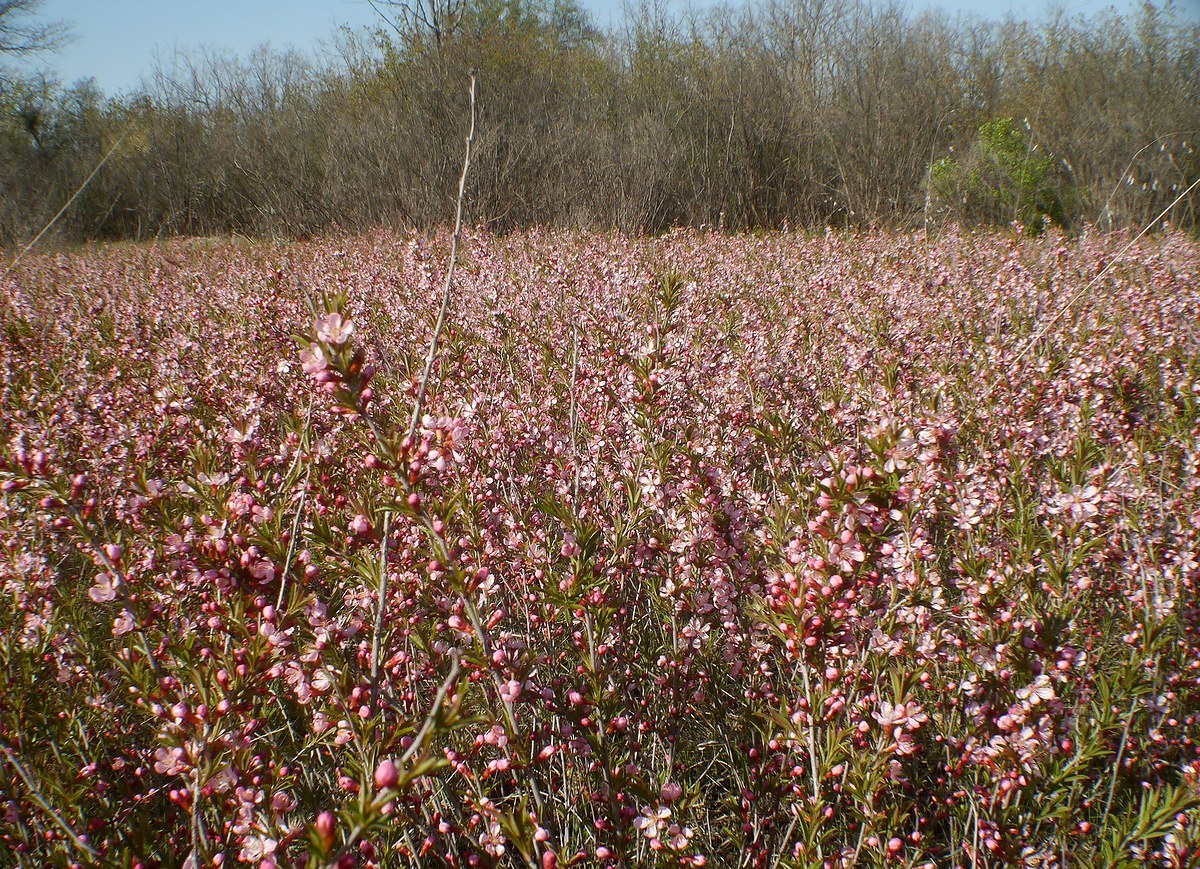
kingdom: Plantae
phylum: Tracheophyta
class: Magnoliopsida
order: Rosales
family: Rosaceae
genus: Prunus
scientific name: Prunus tenella
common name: Dwarf russian almond
